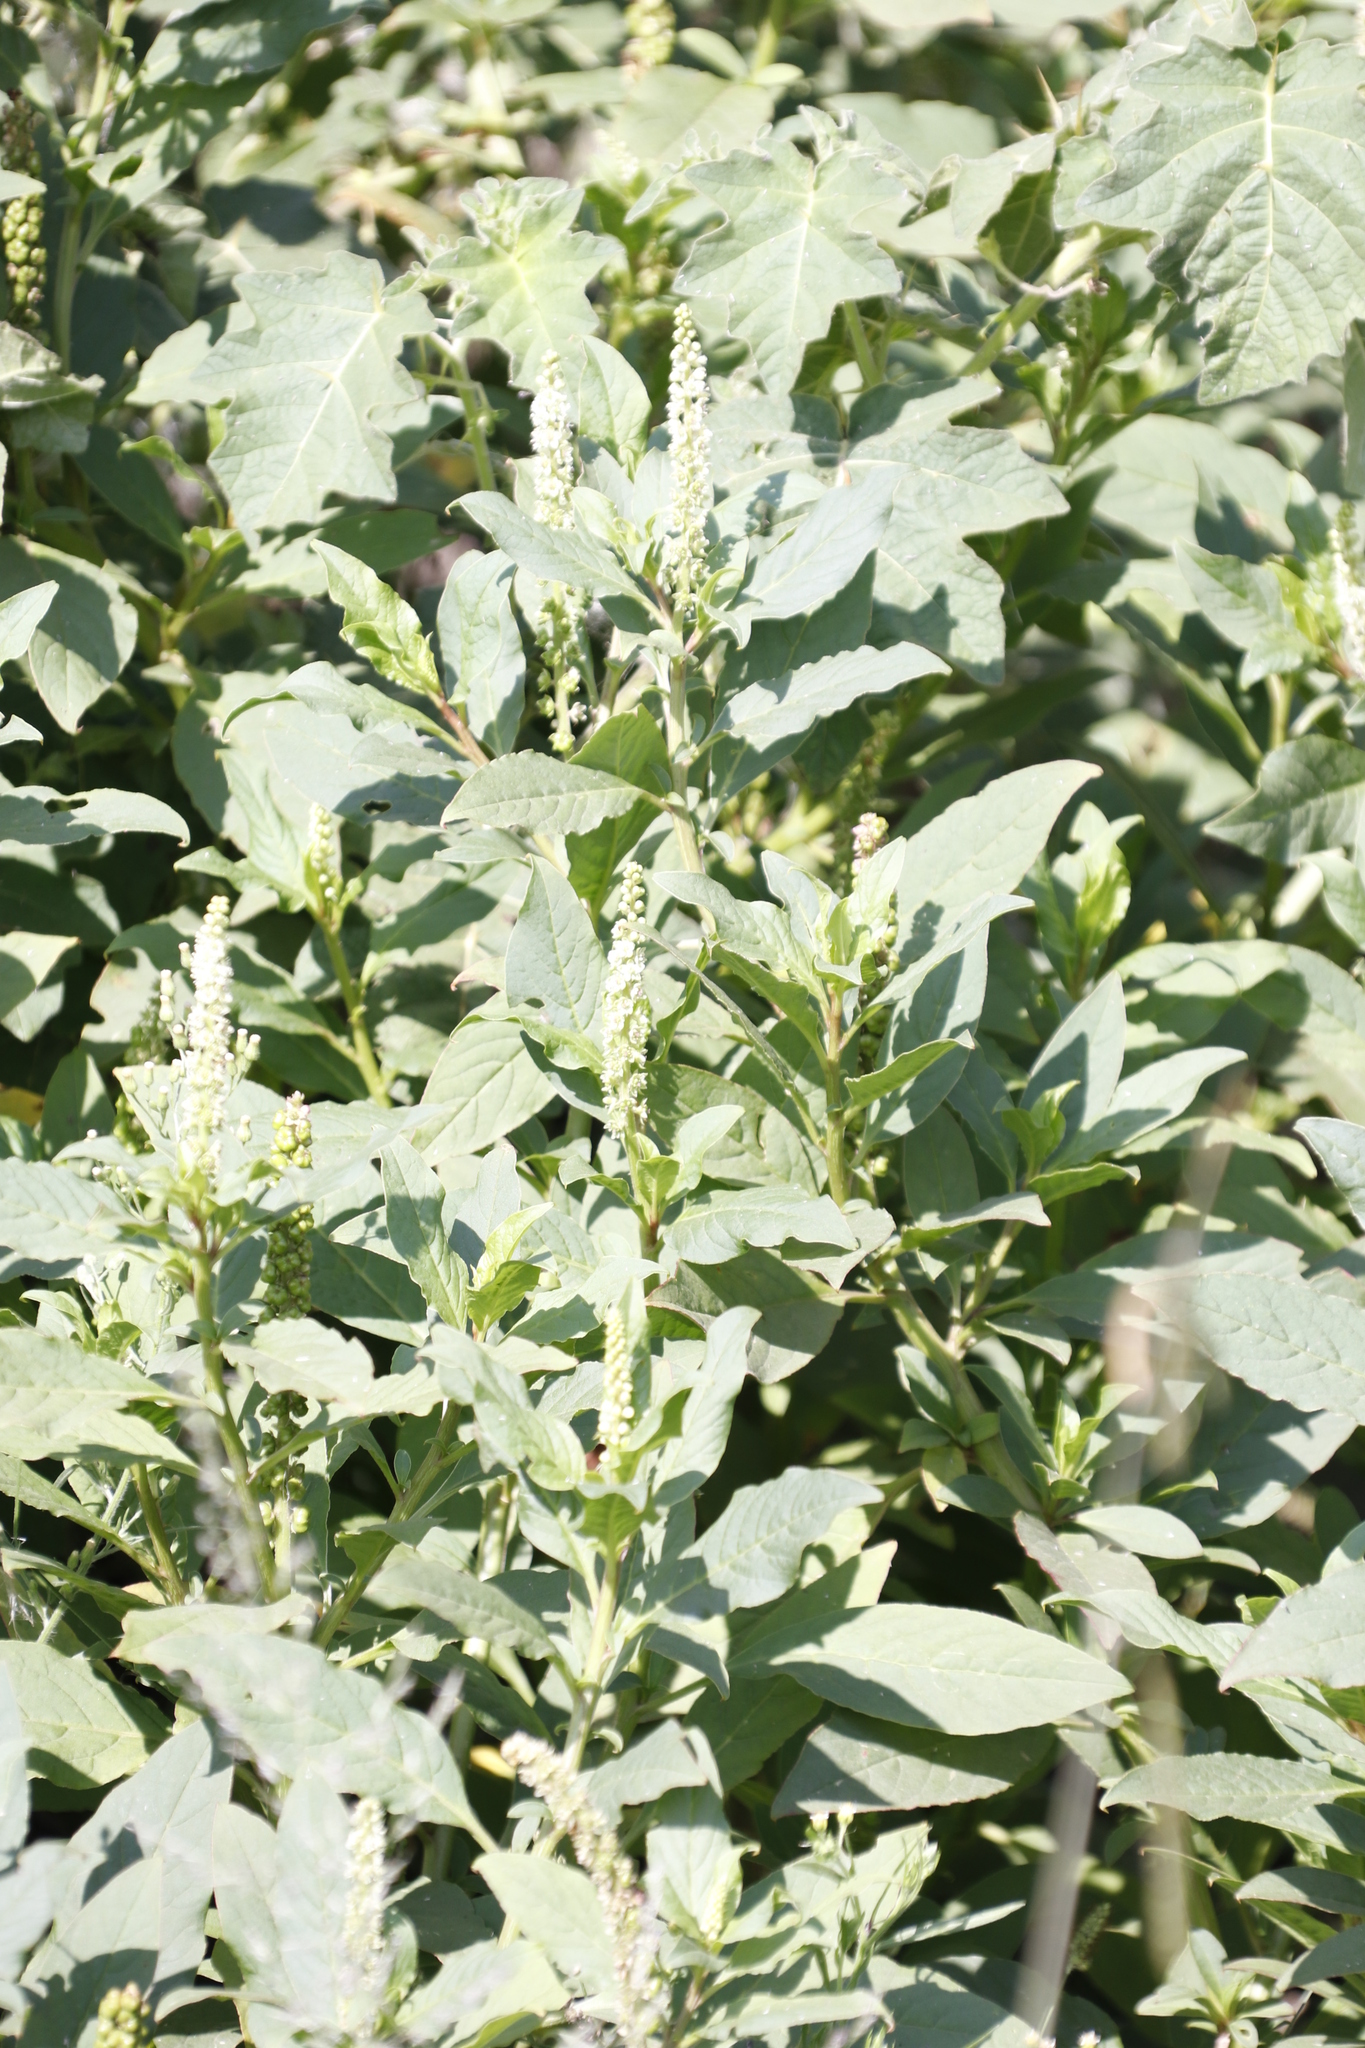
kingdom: Plantae
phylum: Tracheophyta
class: Magnoliopsida
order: Caryophyllales
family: Phytolaccaceae
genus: Phytolacca
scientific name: Phytolacca icosandra
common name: Button pokeweed
